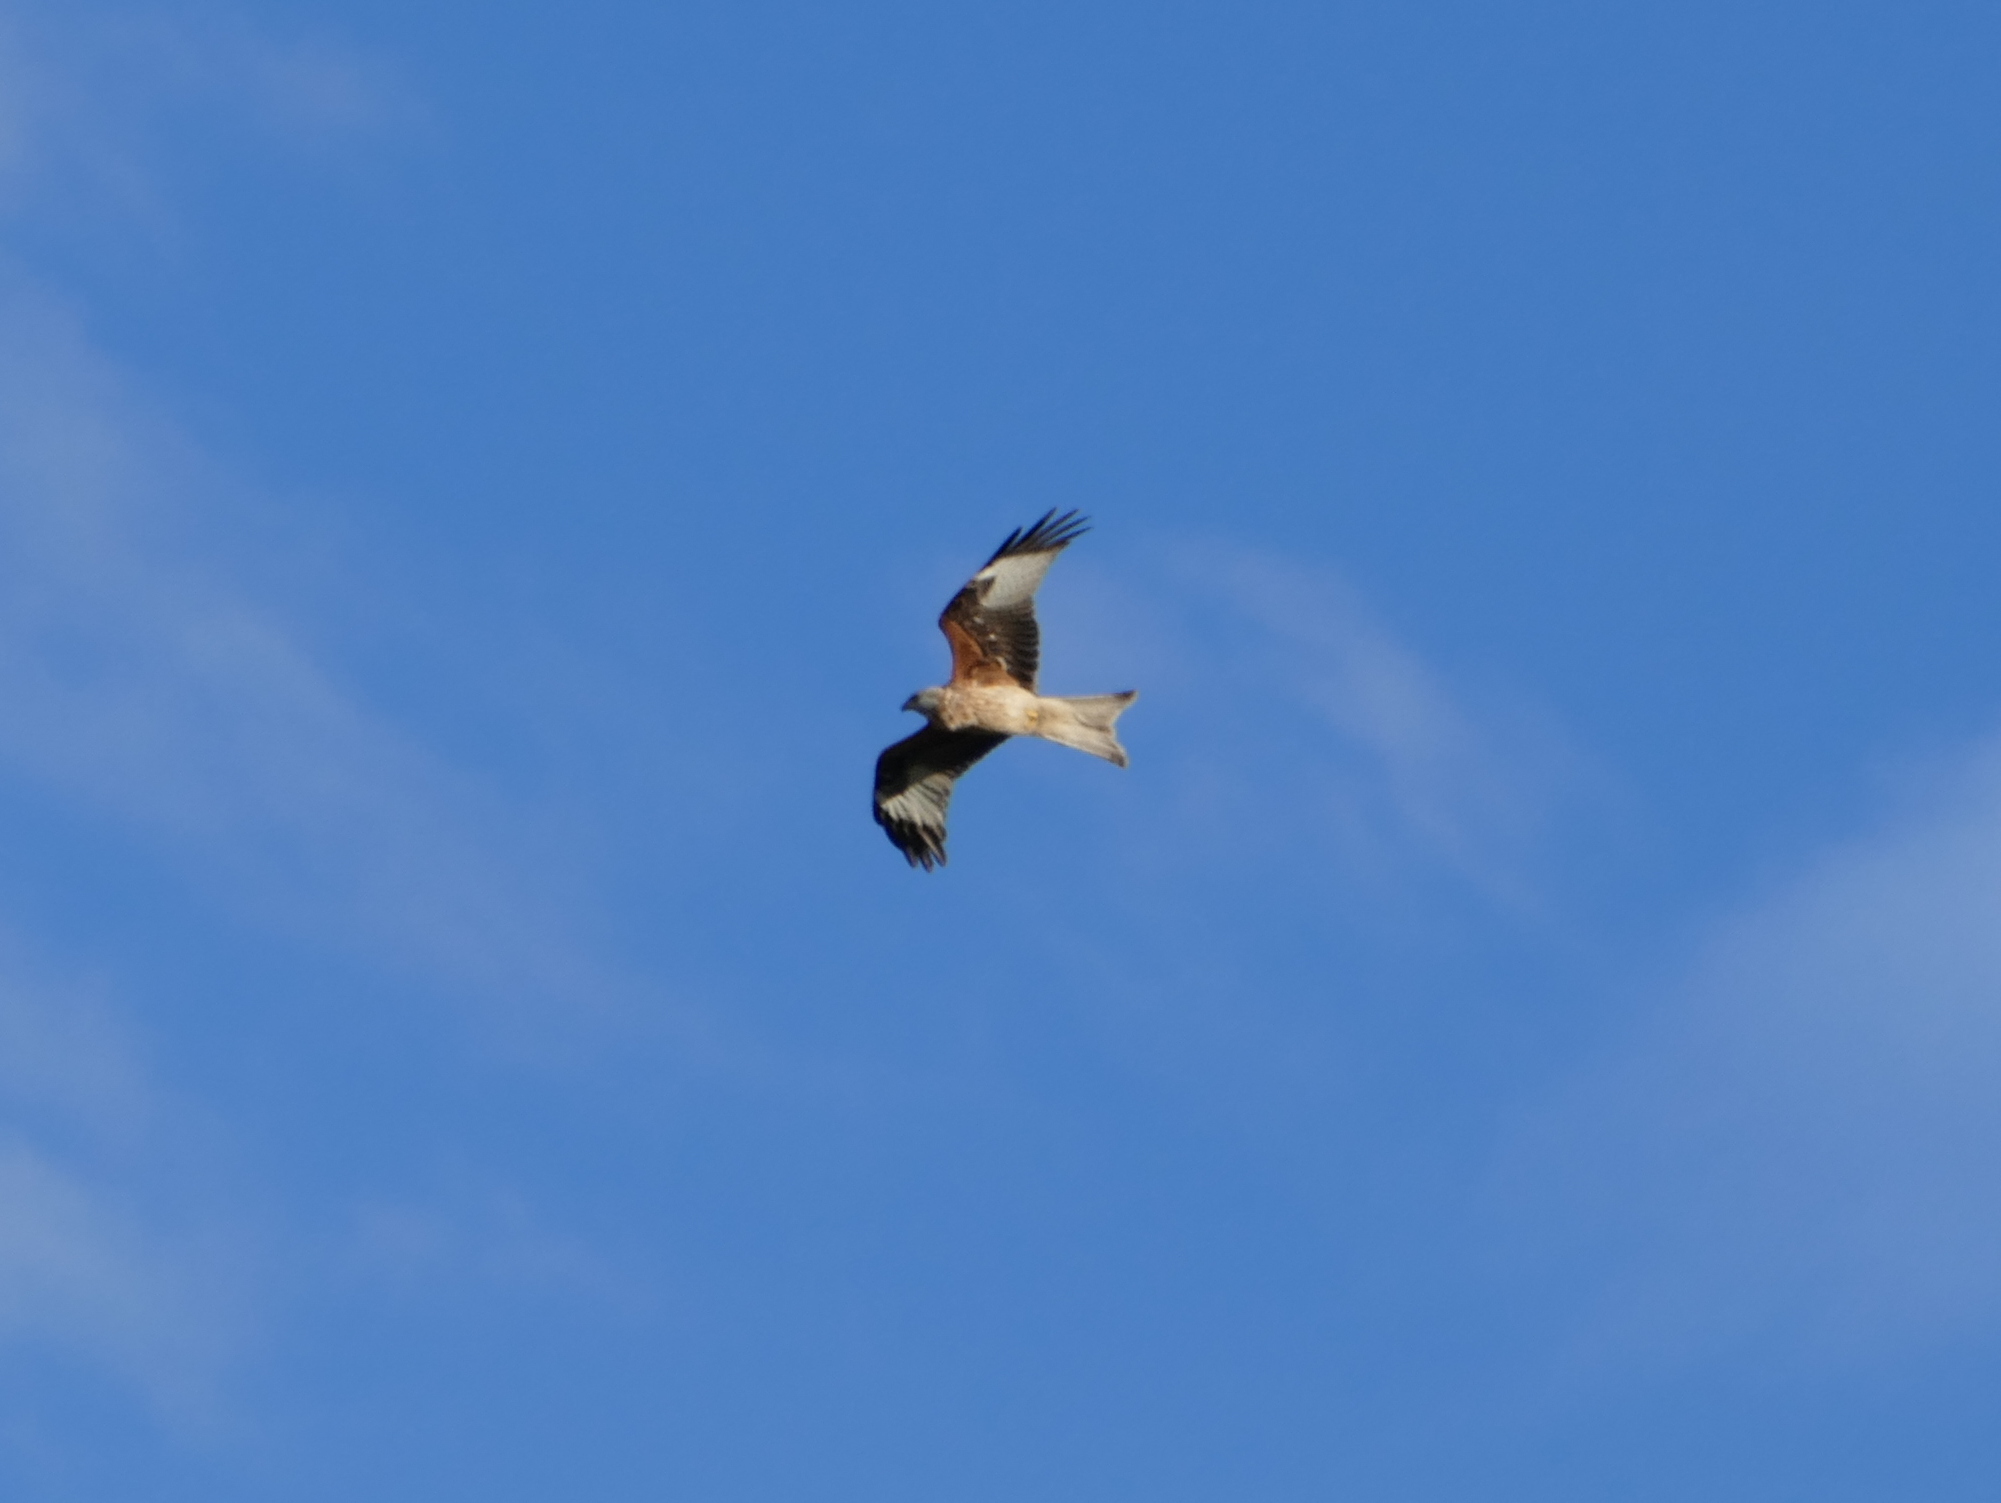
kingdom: Animalia
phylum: Chordata
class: Aves
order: Accipitriformes
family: Accipitridae
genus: Milvus
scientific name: Milvus milvus
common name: Red kite
